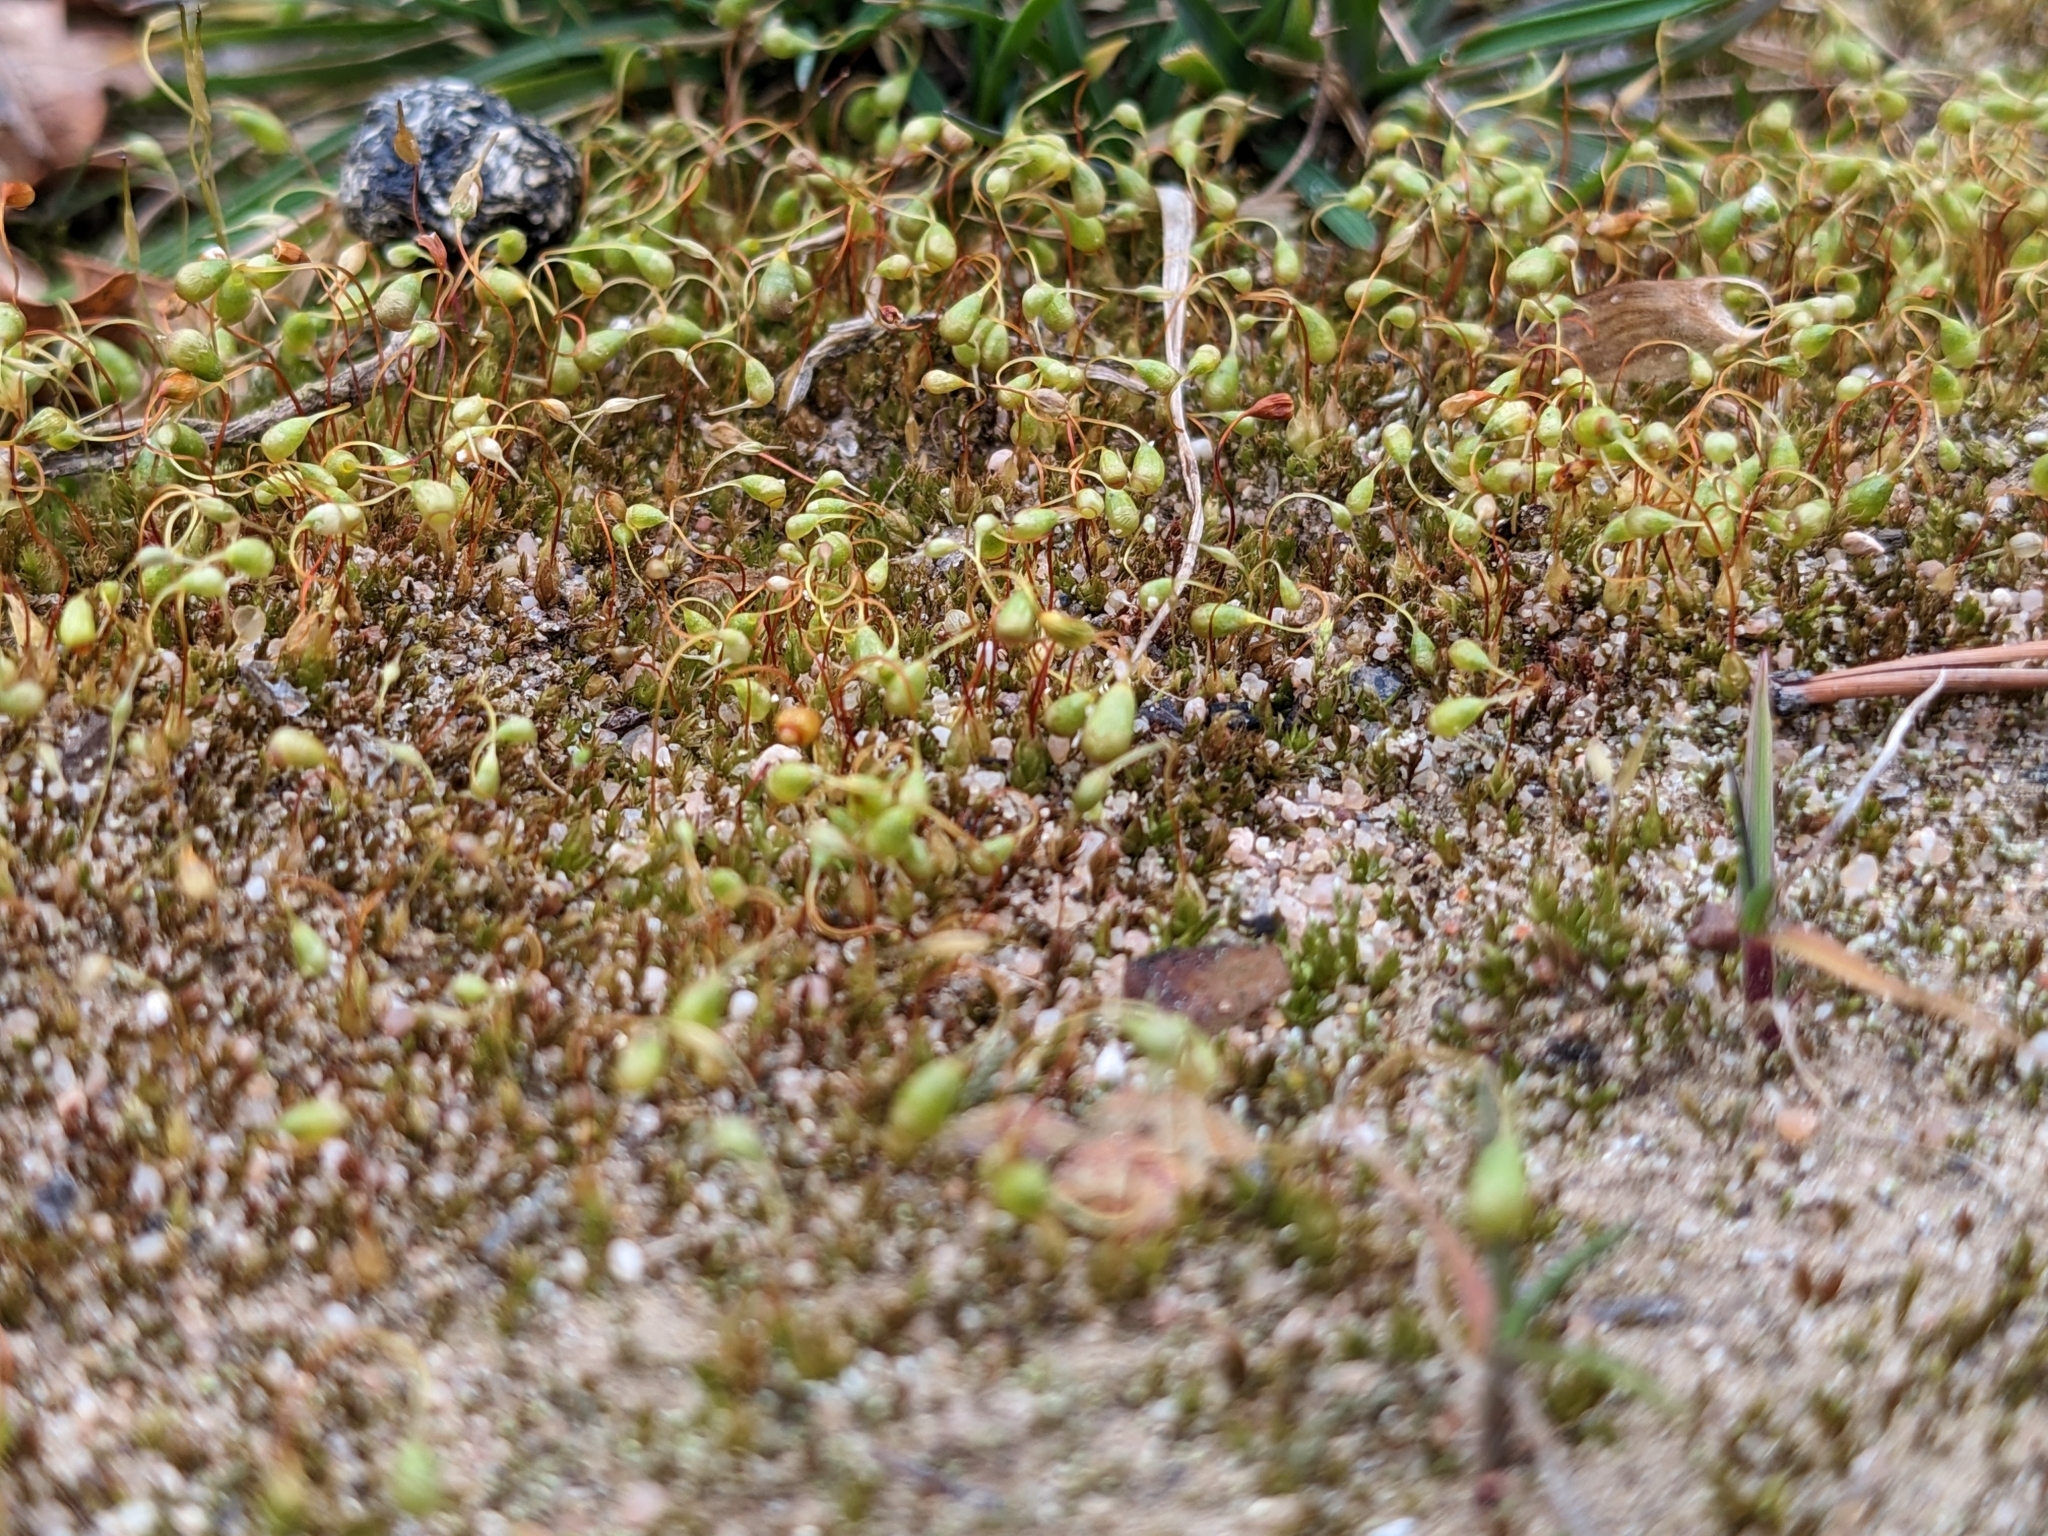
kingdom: Plantae
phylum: Bryophyta
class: Bryopsida
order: Funariales
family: Funariaceae
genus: Funaria
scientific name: Funaria hygrometrica
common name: Common cord moss
